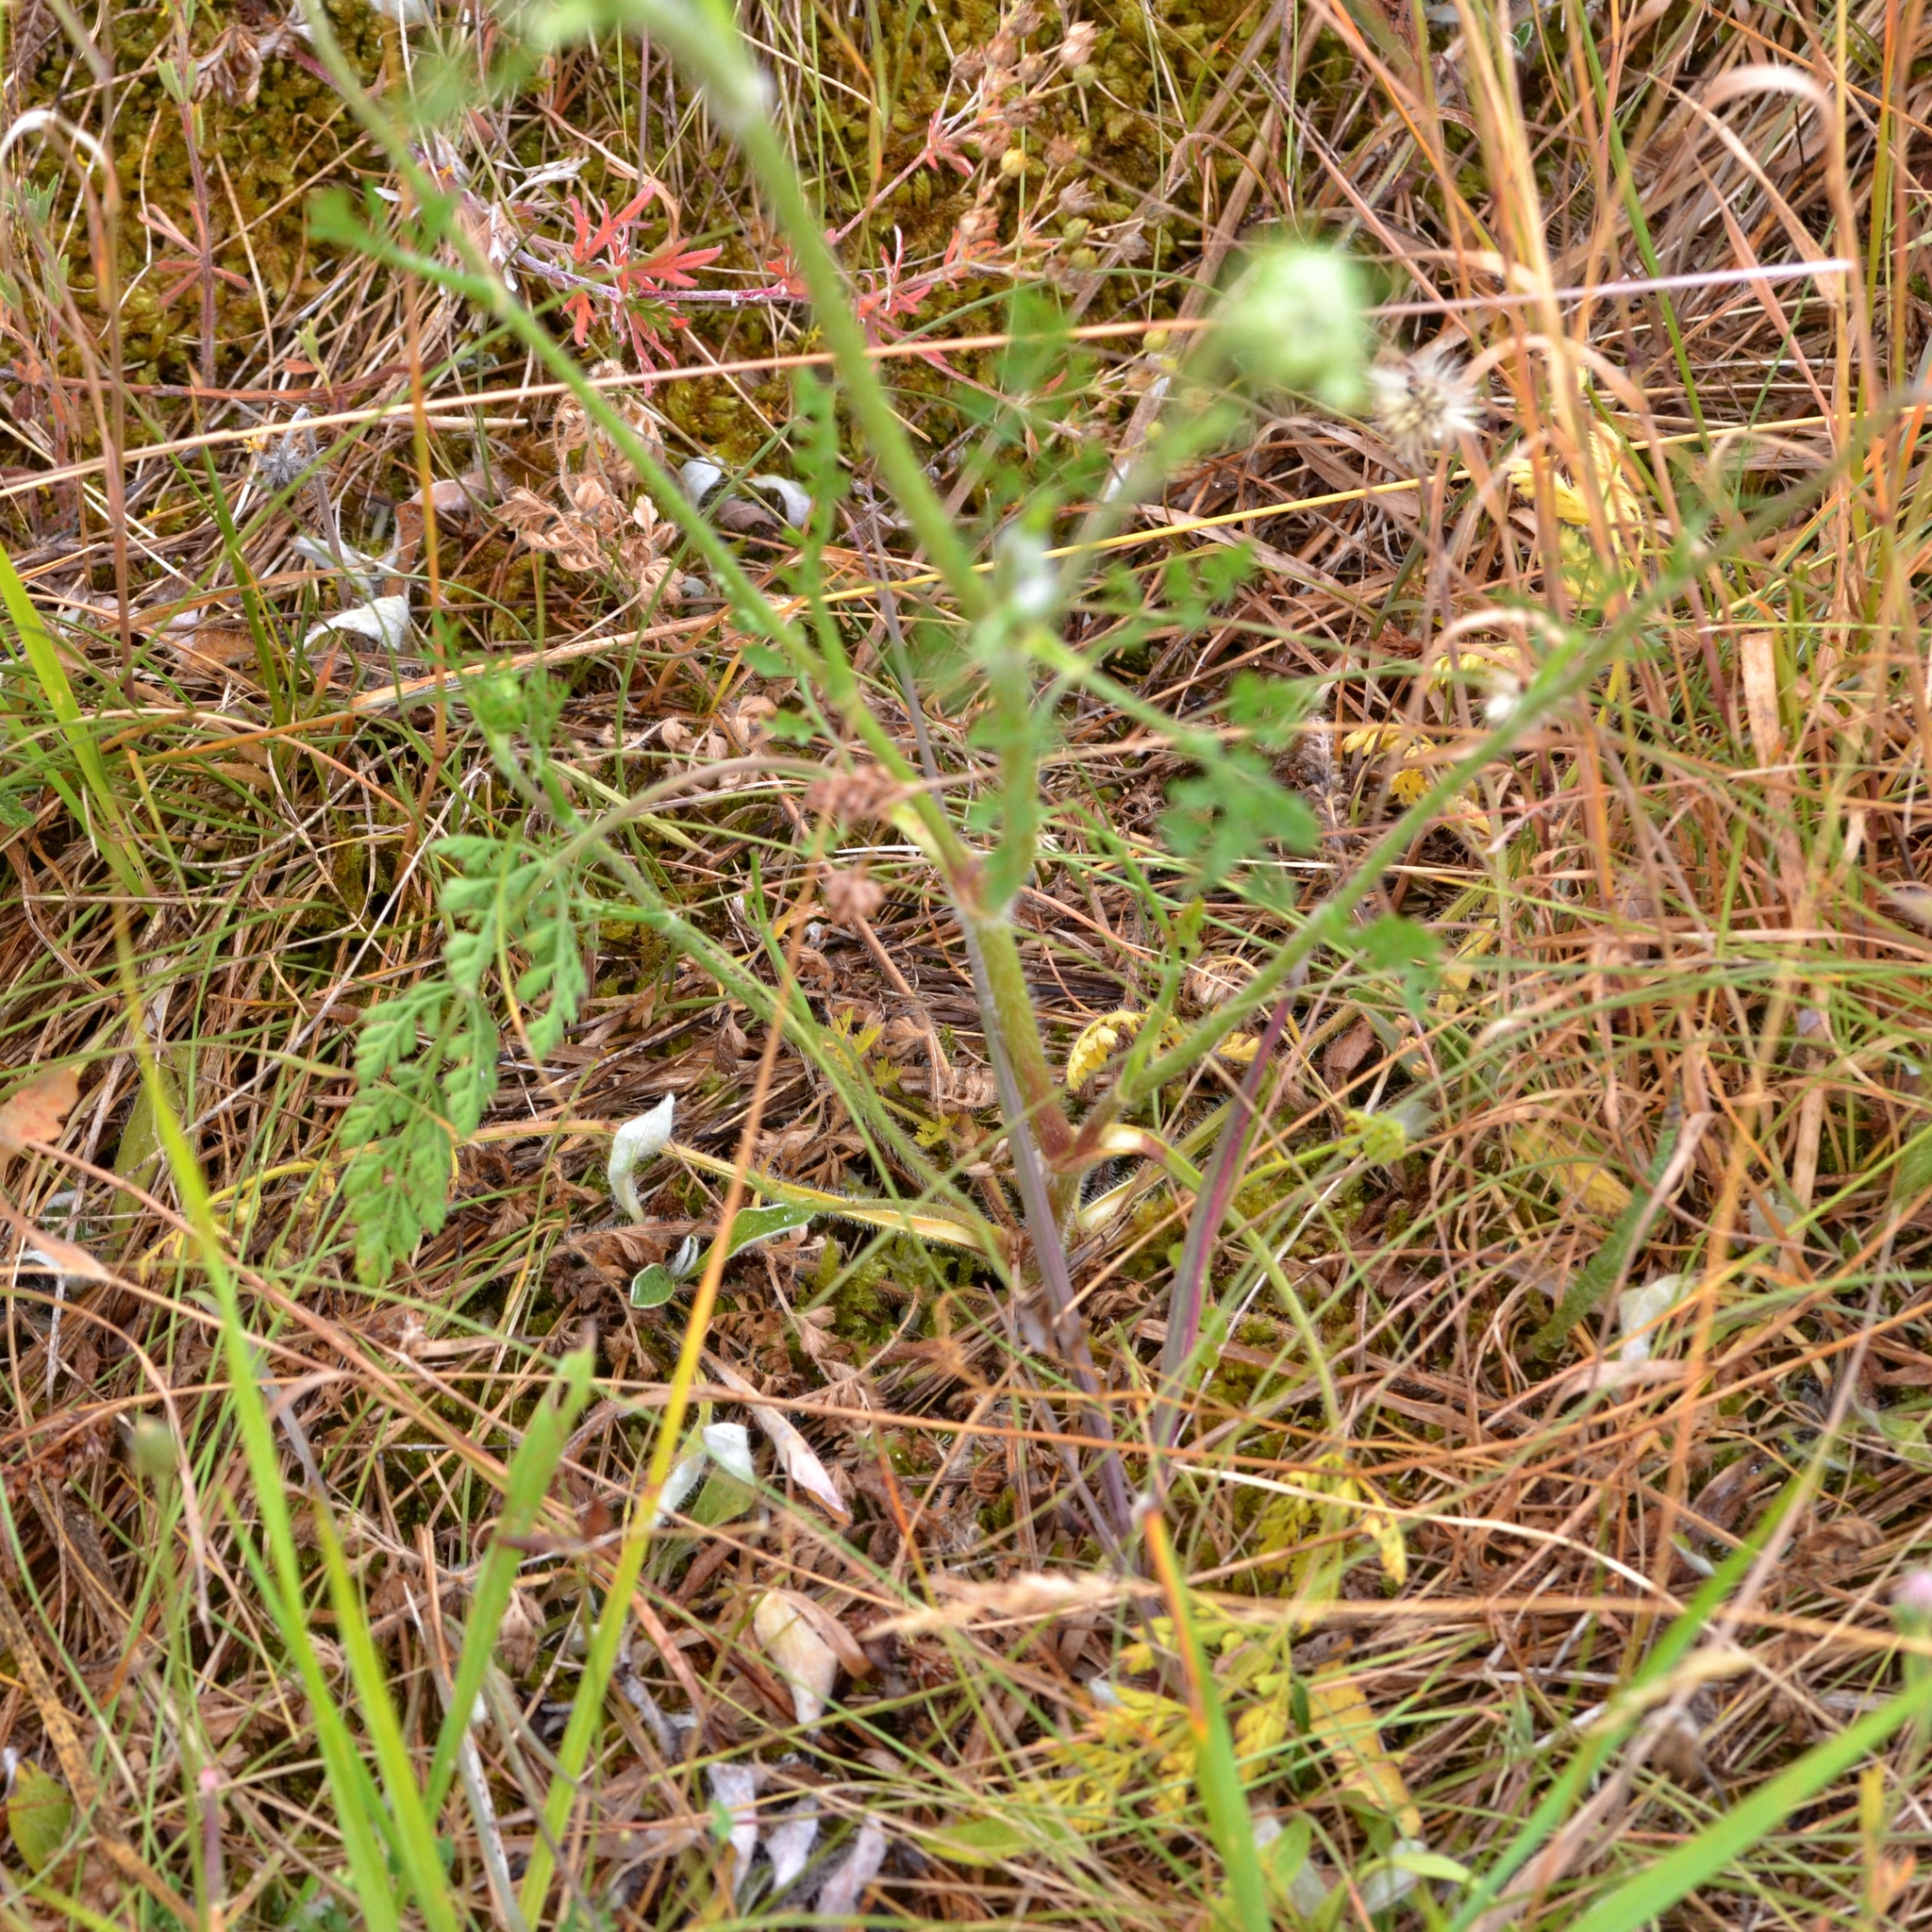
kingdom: Plantae
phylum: Tracheophyta
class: Magnoliopsida
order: Apiales
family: Apiaceae
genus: Daucus
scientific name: Daucus carota
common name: Wild carrot
